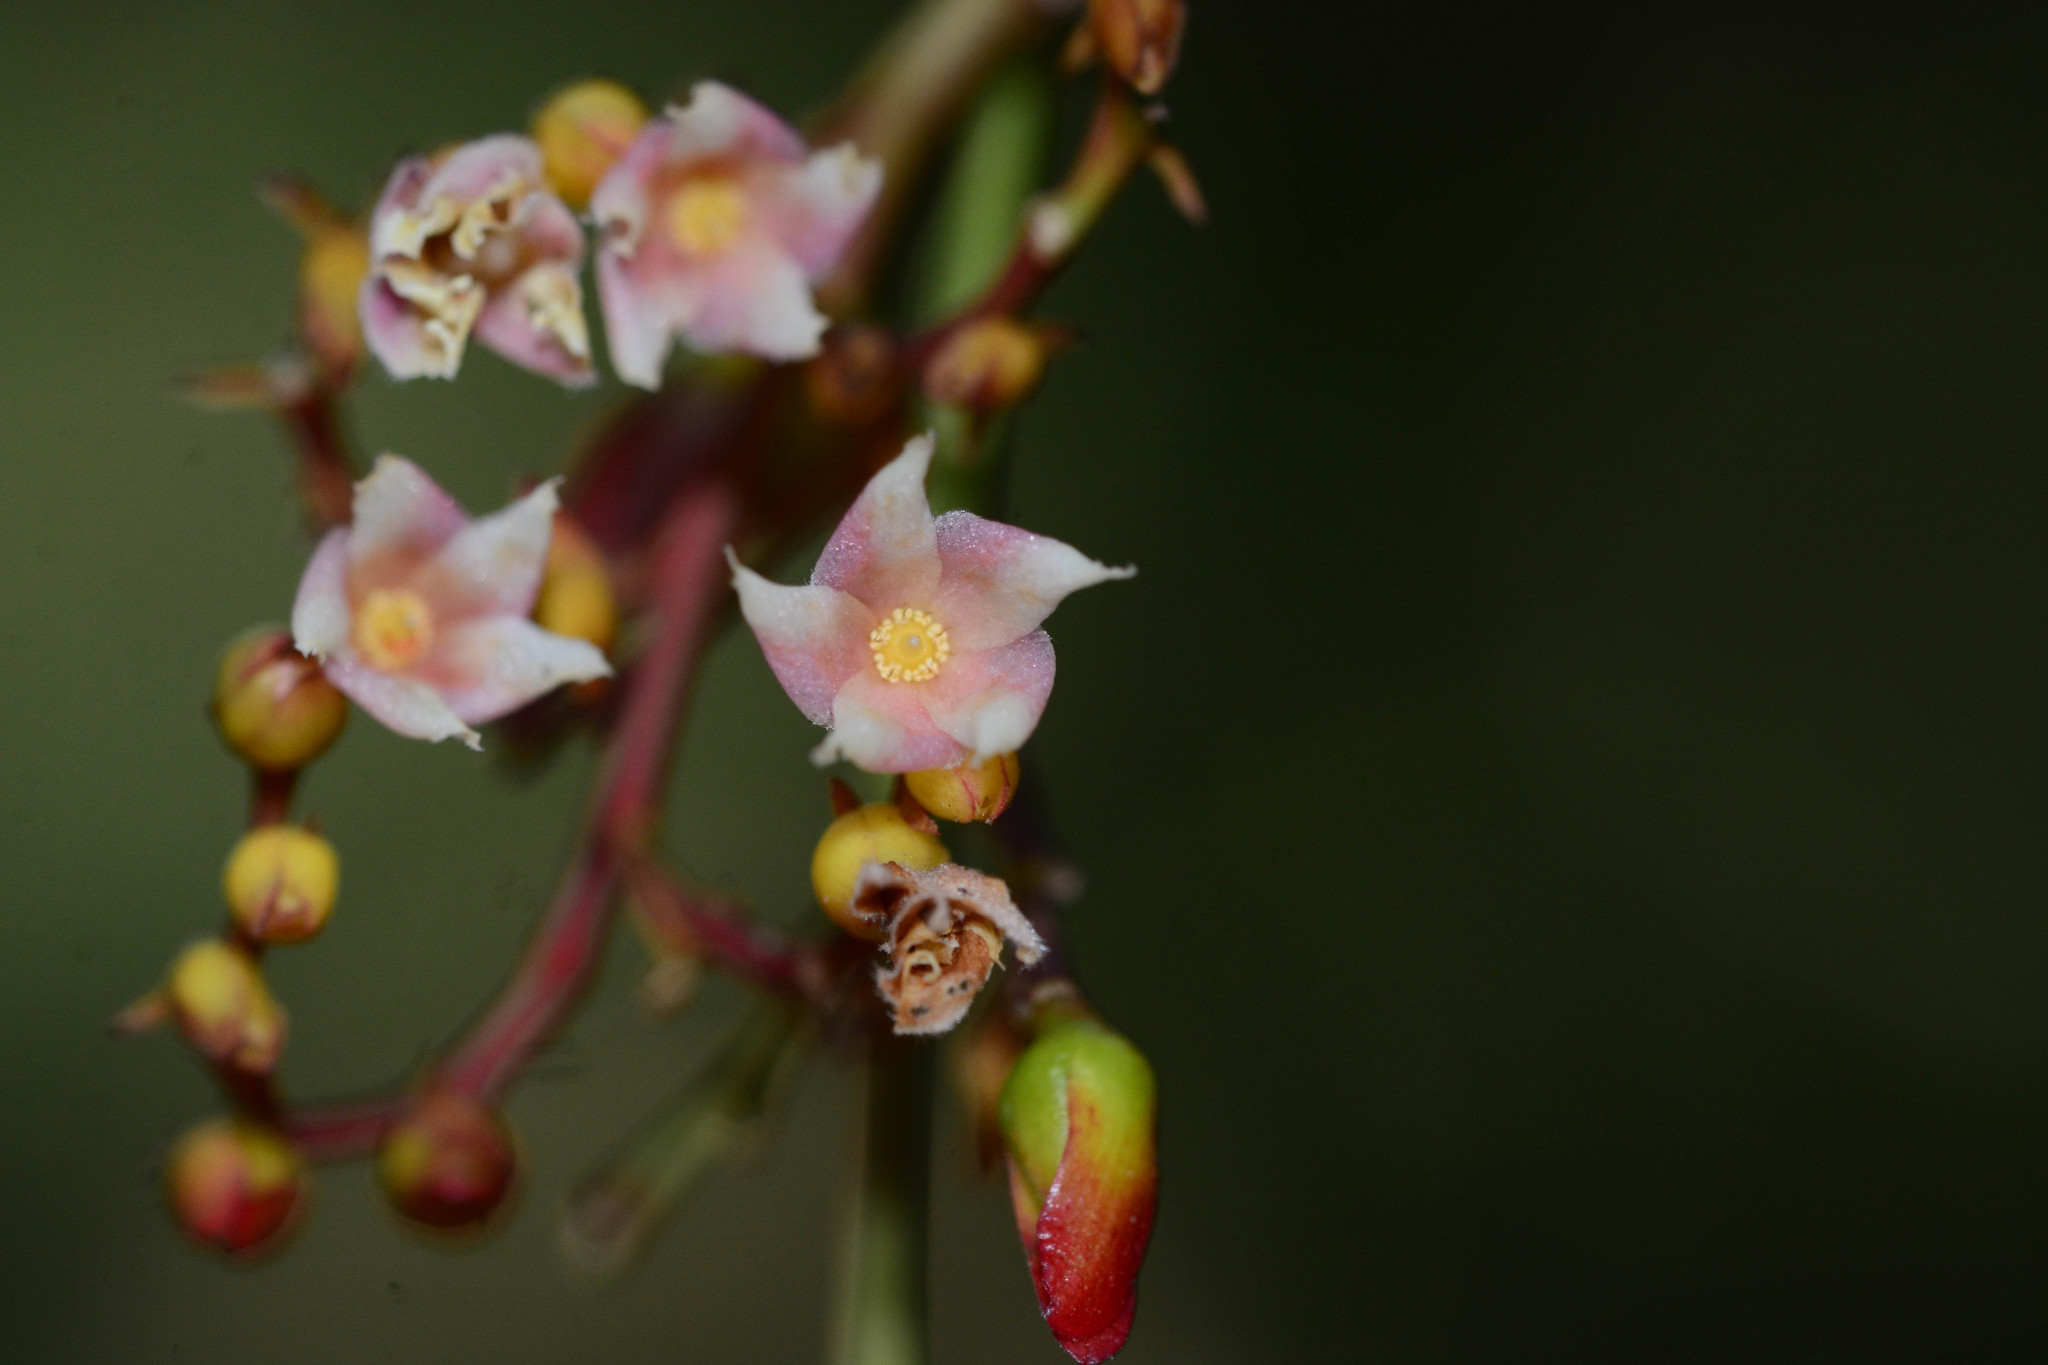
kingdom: Plantae
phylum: Tracheophyta
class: Magnoliopsida
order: Malvales
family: Dipterocarpaceae
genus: Hopea
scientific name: Hopea ponga
